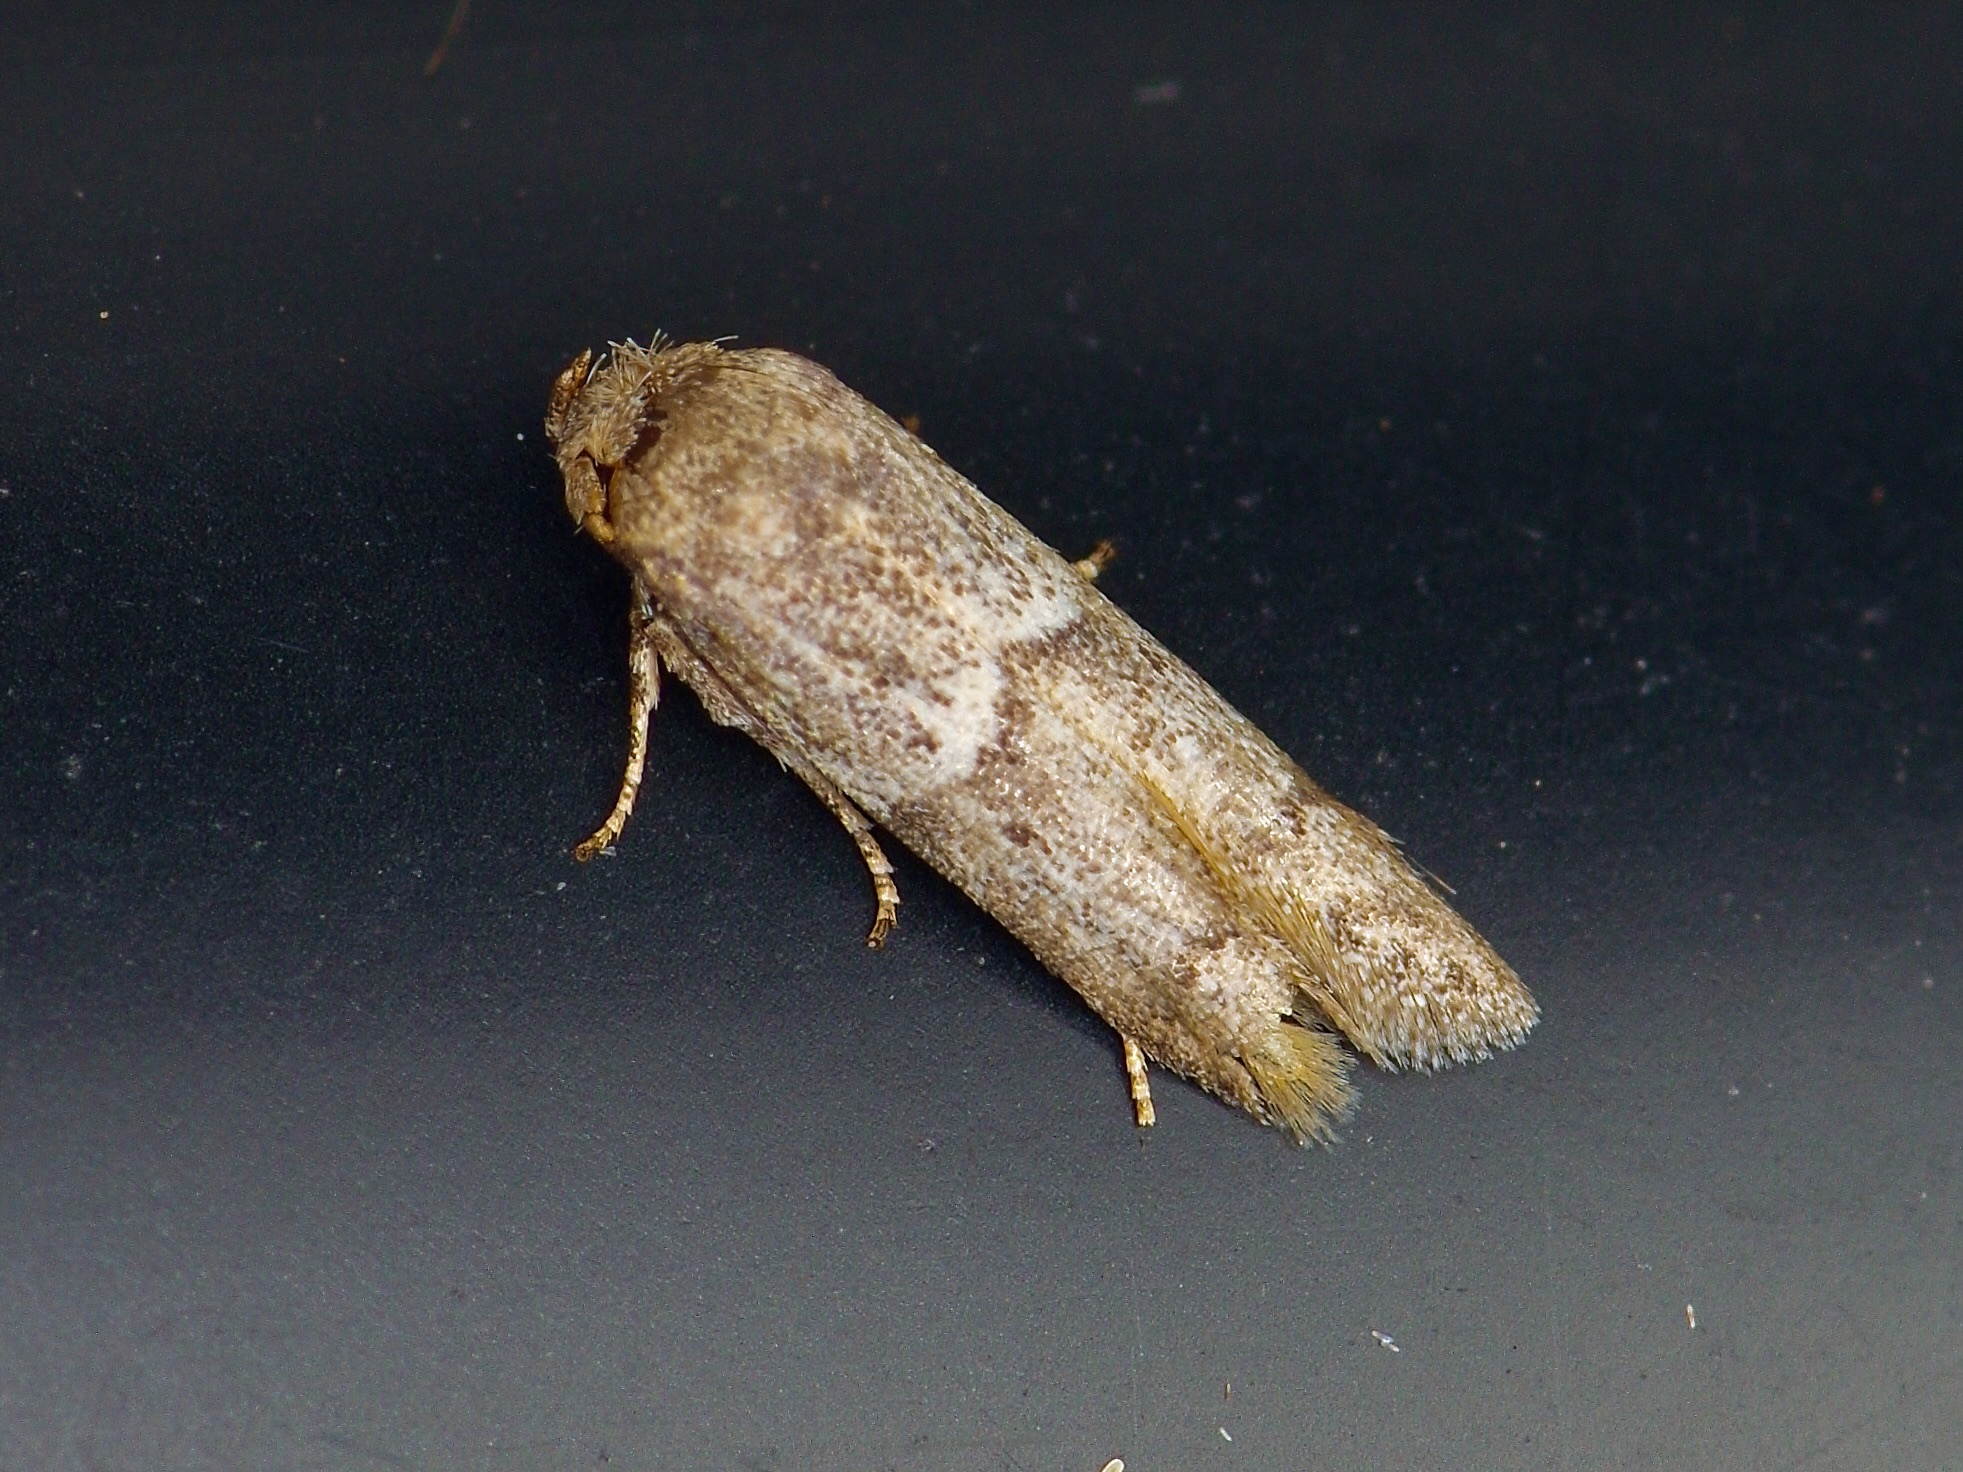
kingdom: Animalia
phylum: Arthropoda
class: Insecta
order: Lepidoptera
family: Blastobasidae
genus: Blastobasis
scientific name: Blastobasis glandulella
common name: Acorn moth
